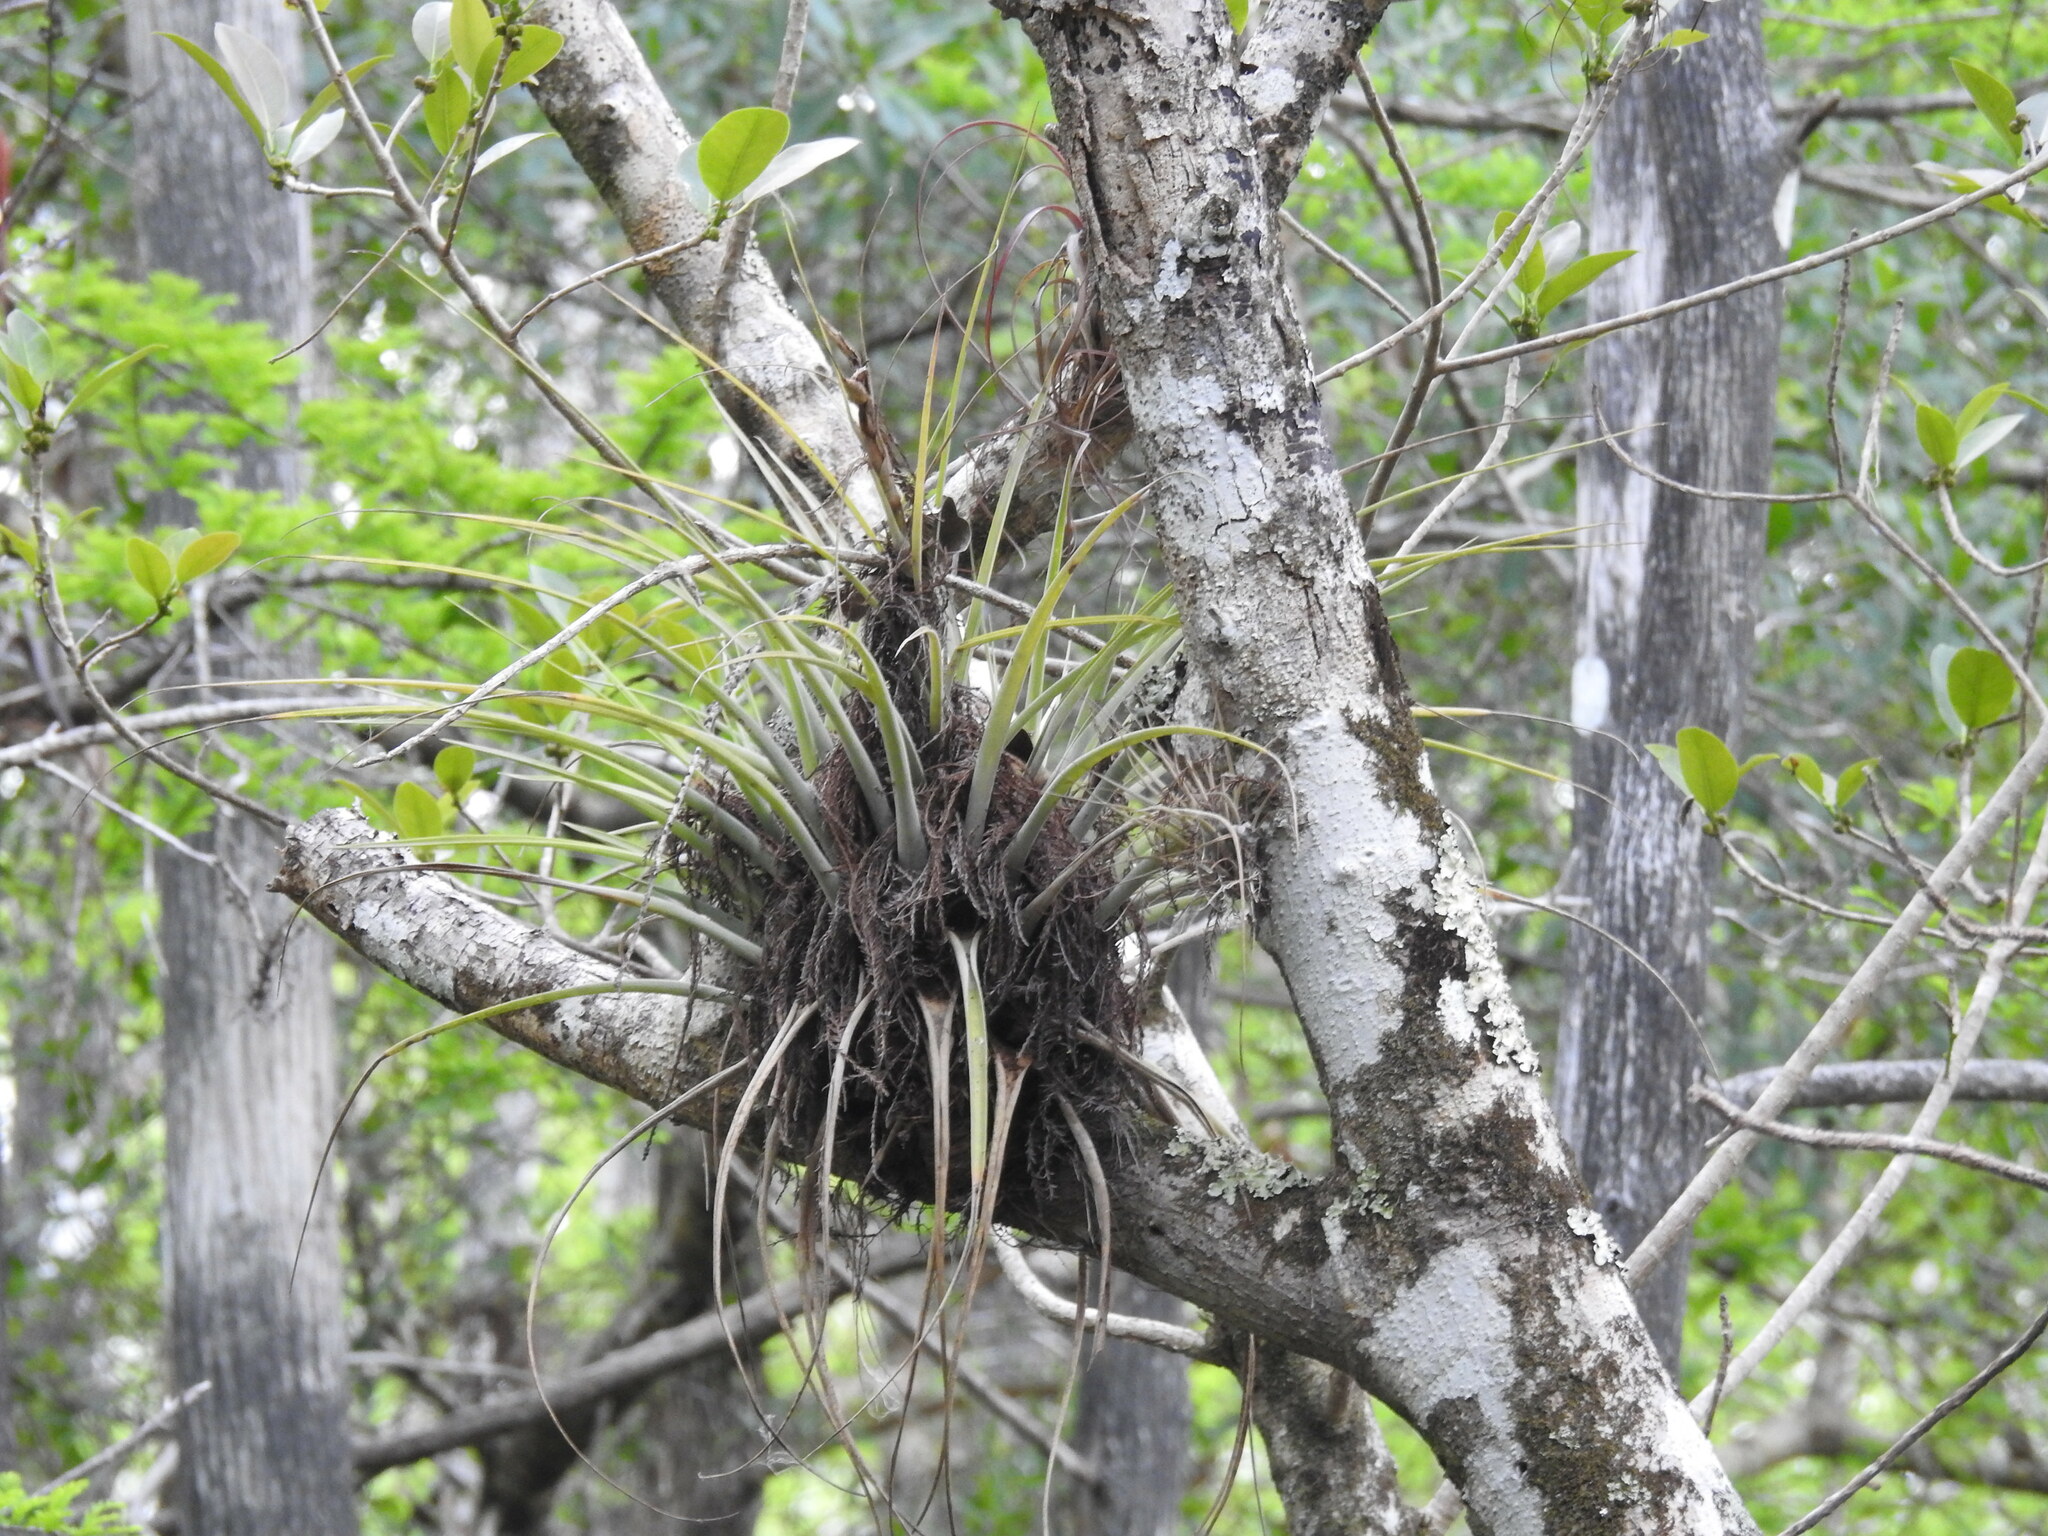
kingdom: Plantae
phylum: Tracheophyta
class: Liliopsida
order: Poales
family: Bromeliaceae
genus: Tillandsia
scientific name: Tillandsia fasciculata
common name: Giant airplant
